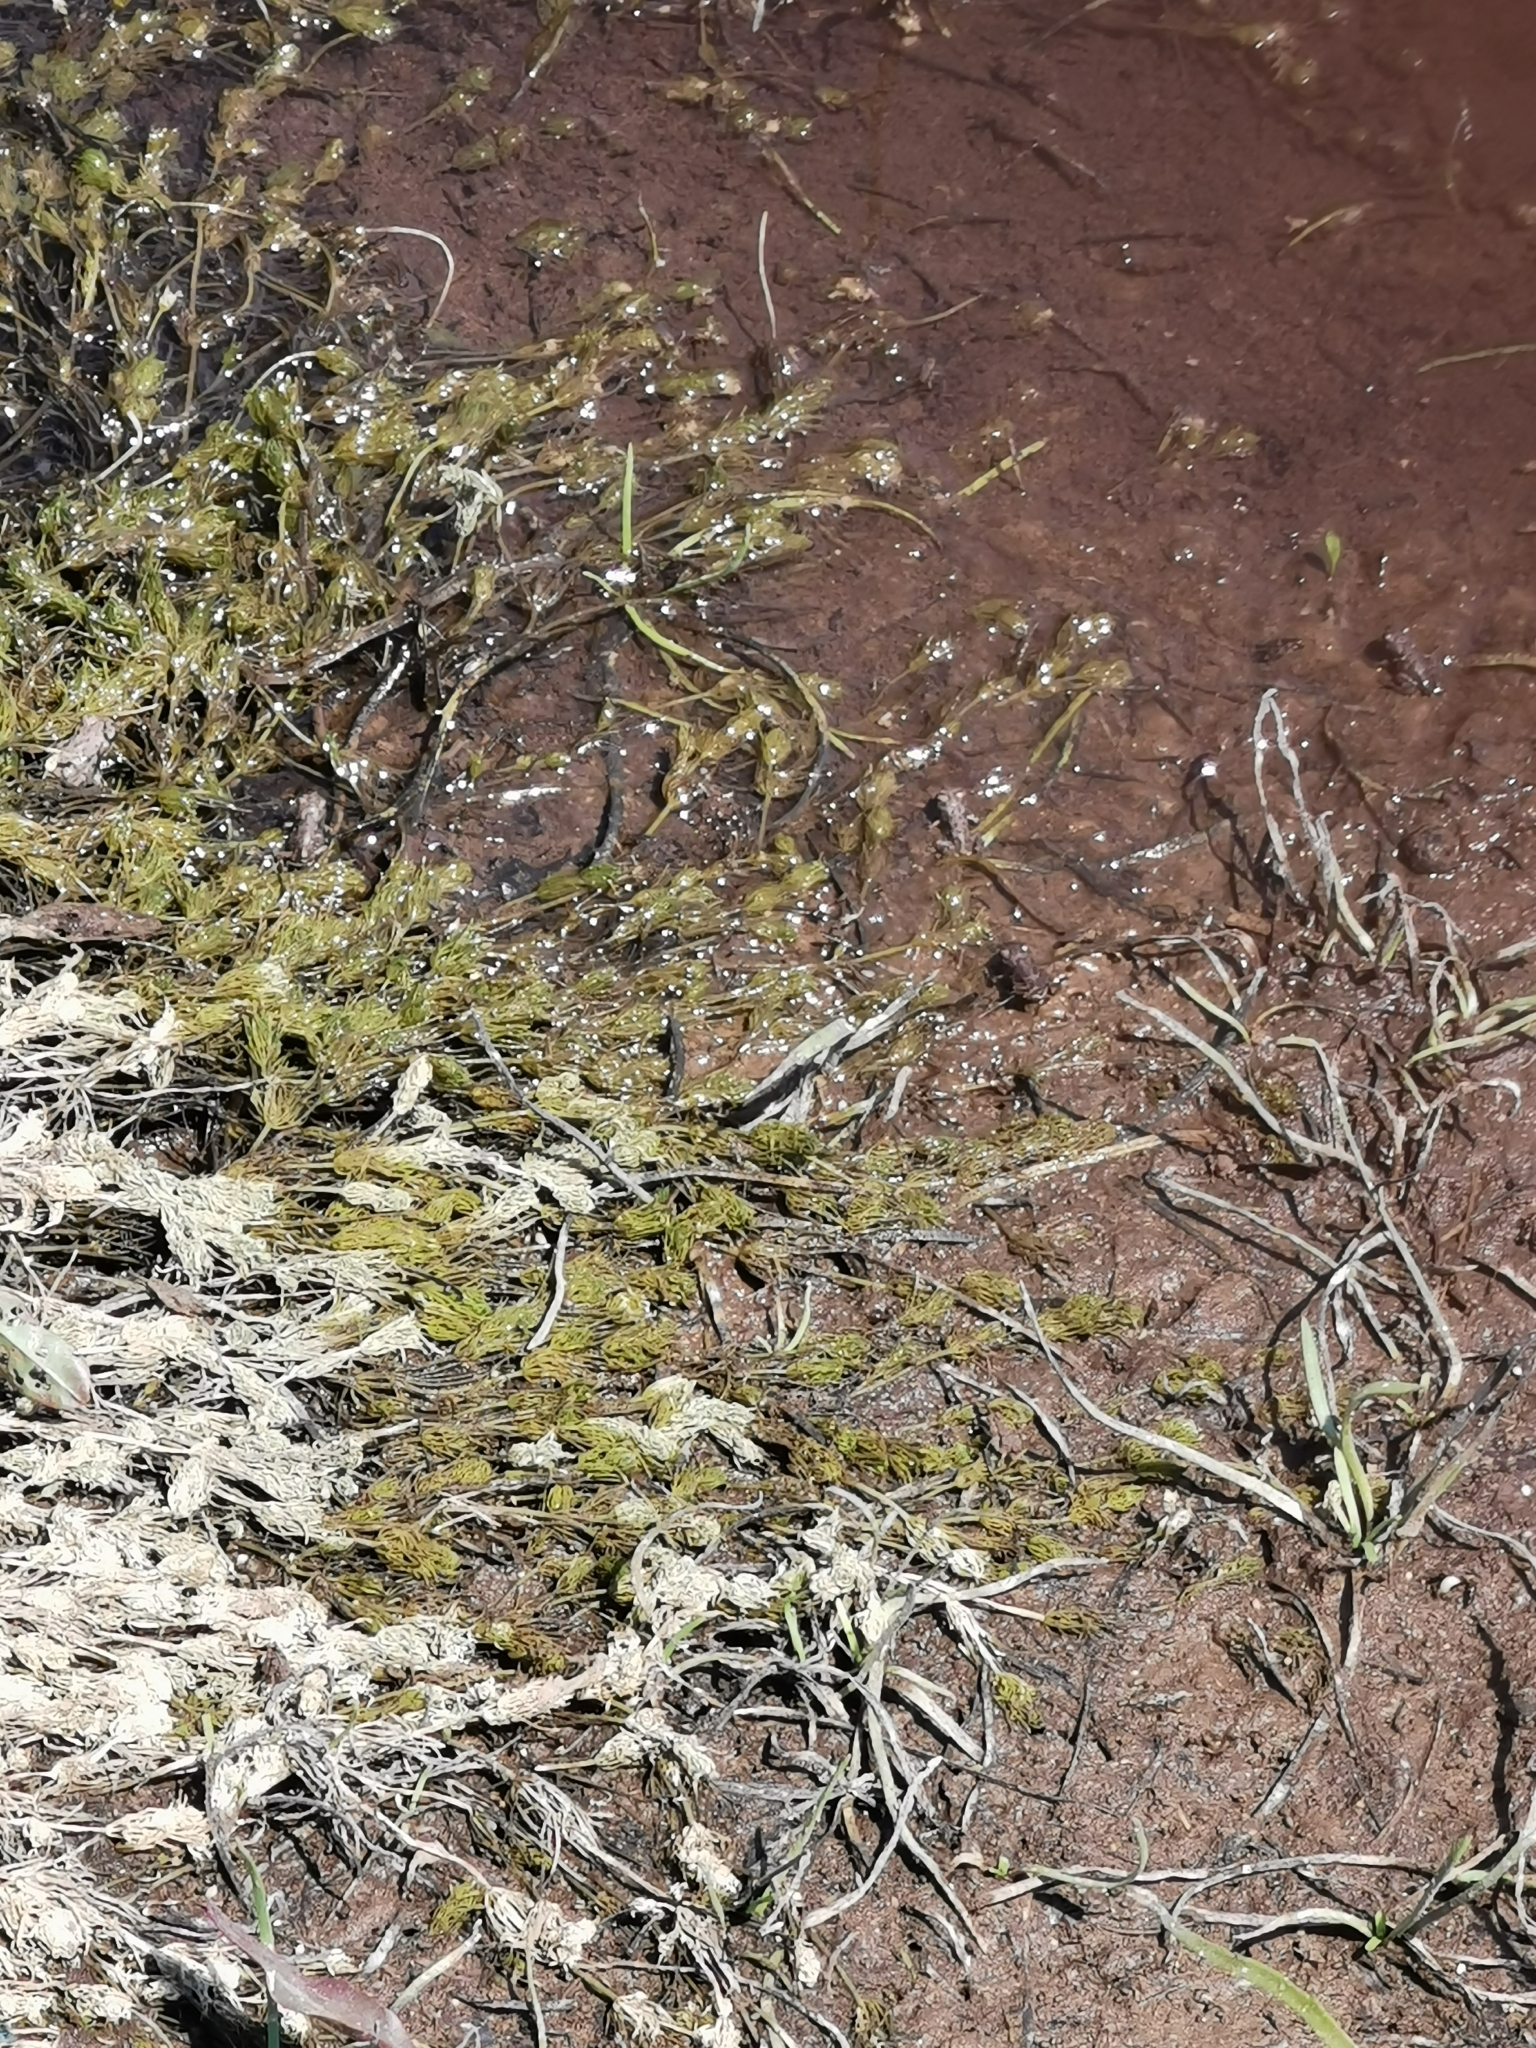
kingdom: Animalia
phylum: Chordata
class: Amphibia
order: Anura
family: Bufonidae
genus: Bufotes
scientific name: Bufotes viridis
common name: European green toad
